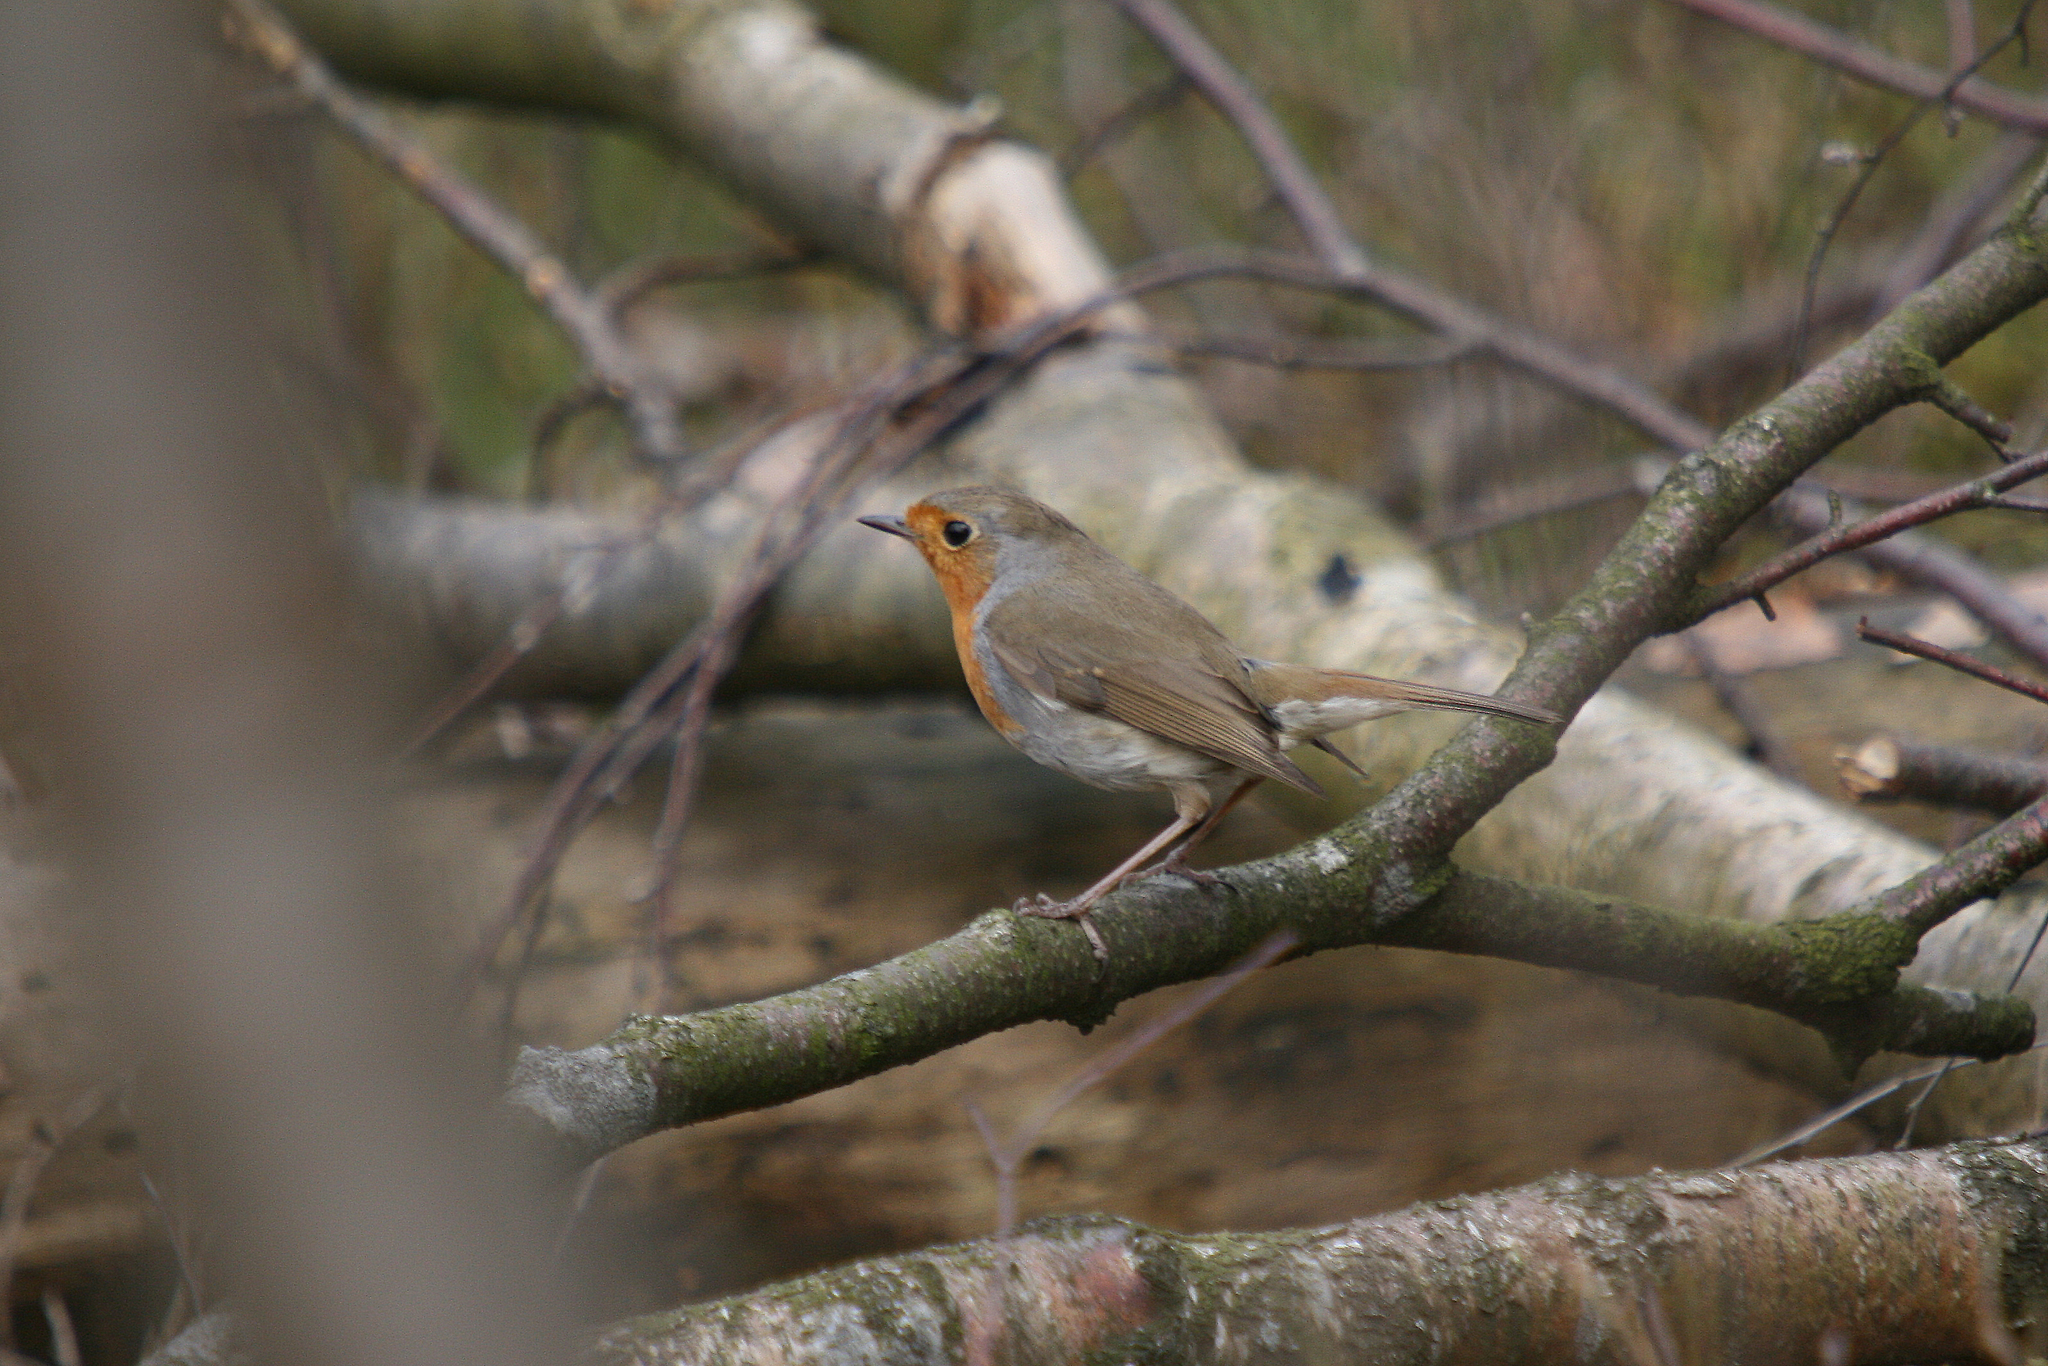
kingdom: Animalia
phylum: Chordata
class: Aves
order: Passeriformes
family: Muscicapidae
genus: Erithacus
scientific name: Erithacus rubecula
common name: European robin
